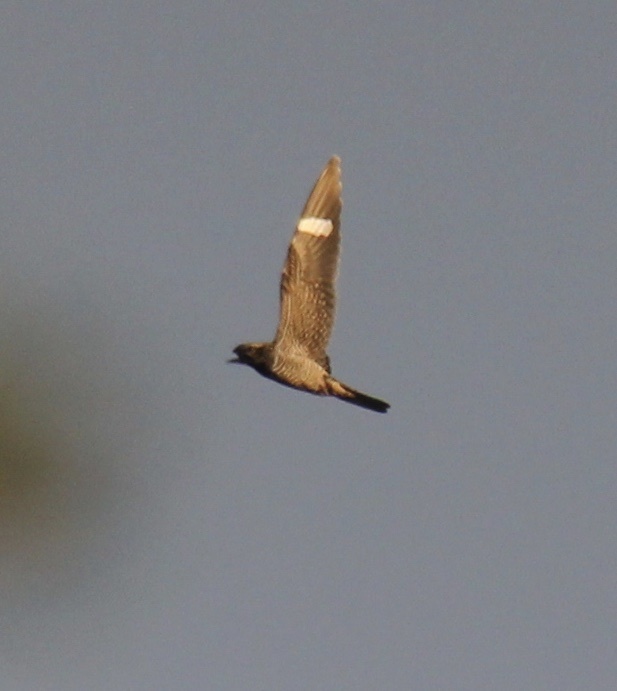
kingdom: Animalia
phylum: Chordata
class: Aves
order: Caprimulgiformes
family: Caprimulgidae
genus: Chordeiles
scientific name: Chordeiles minor
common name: Common nighthawk
